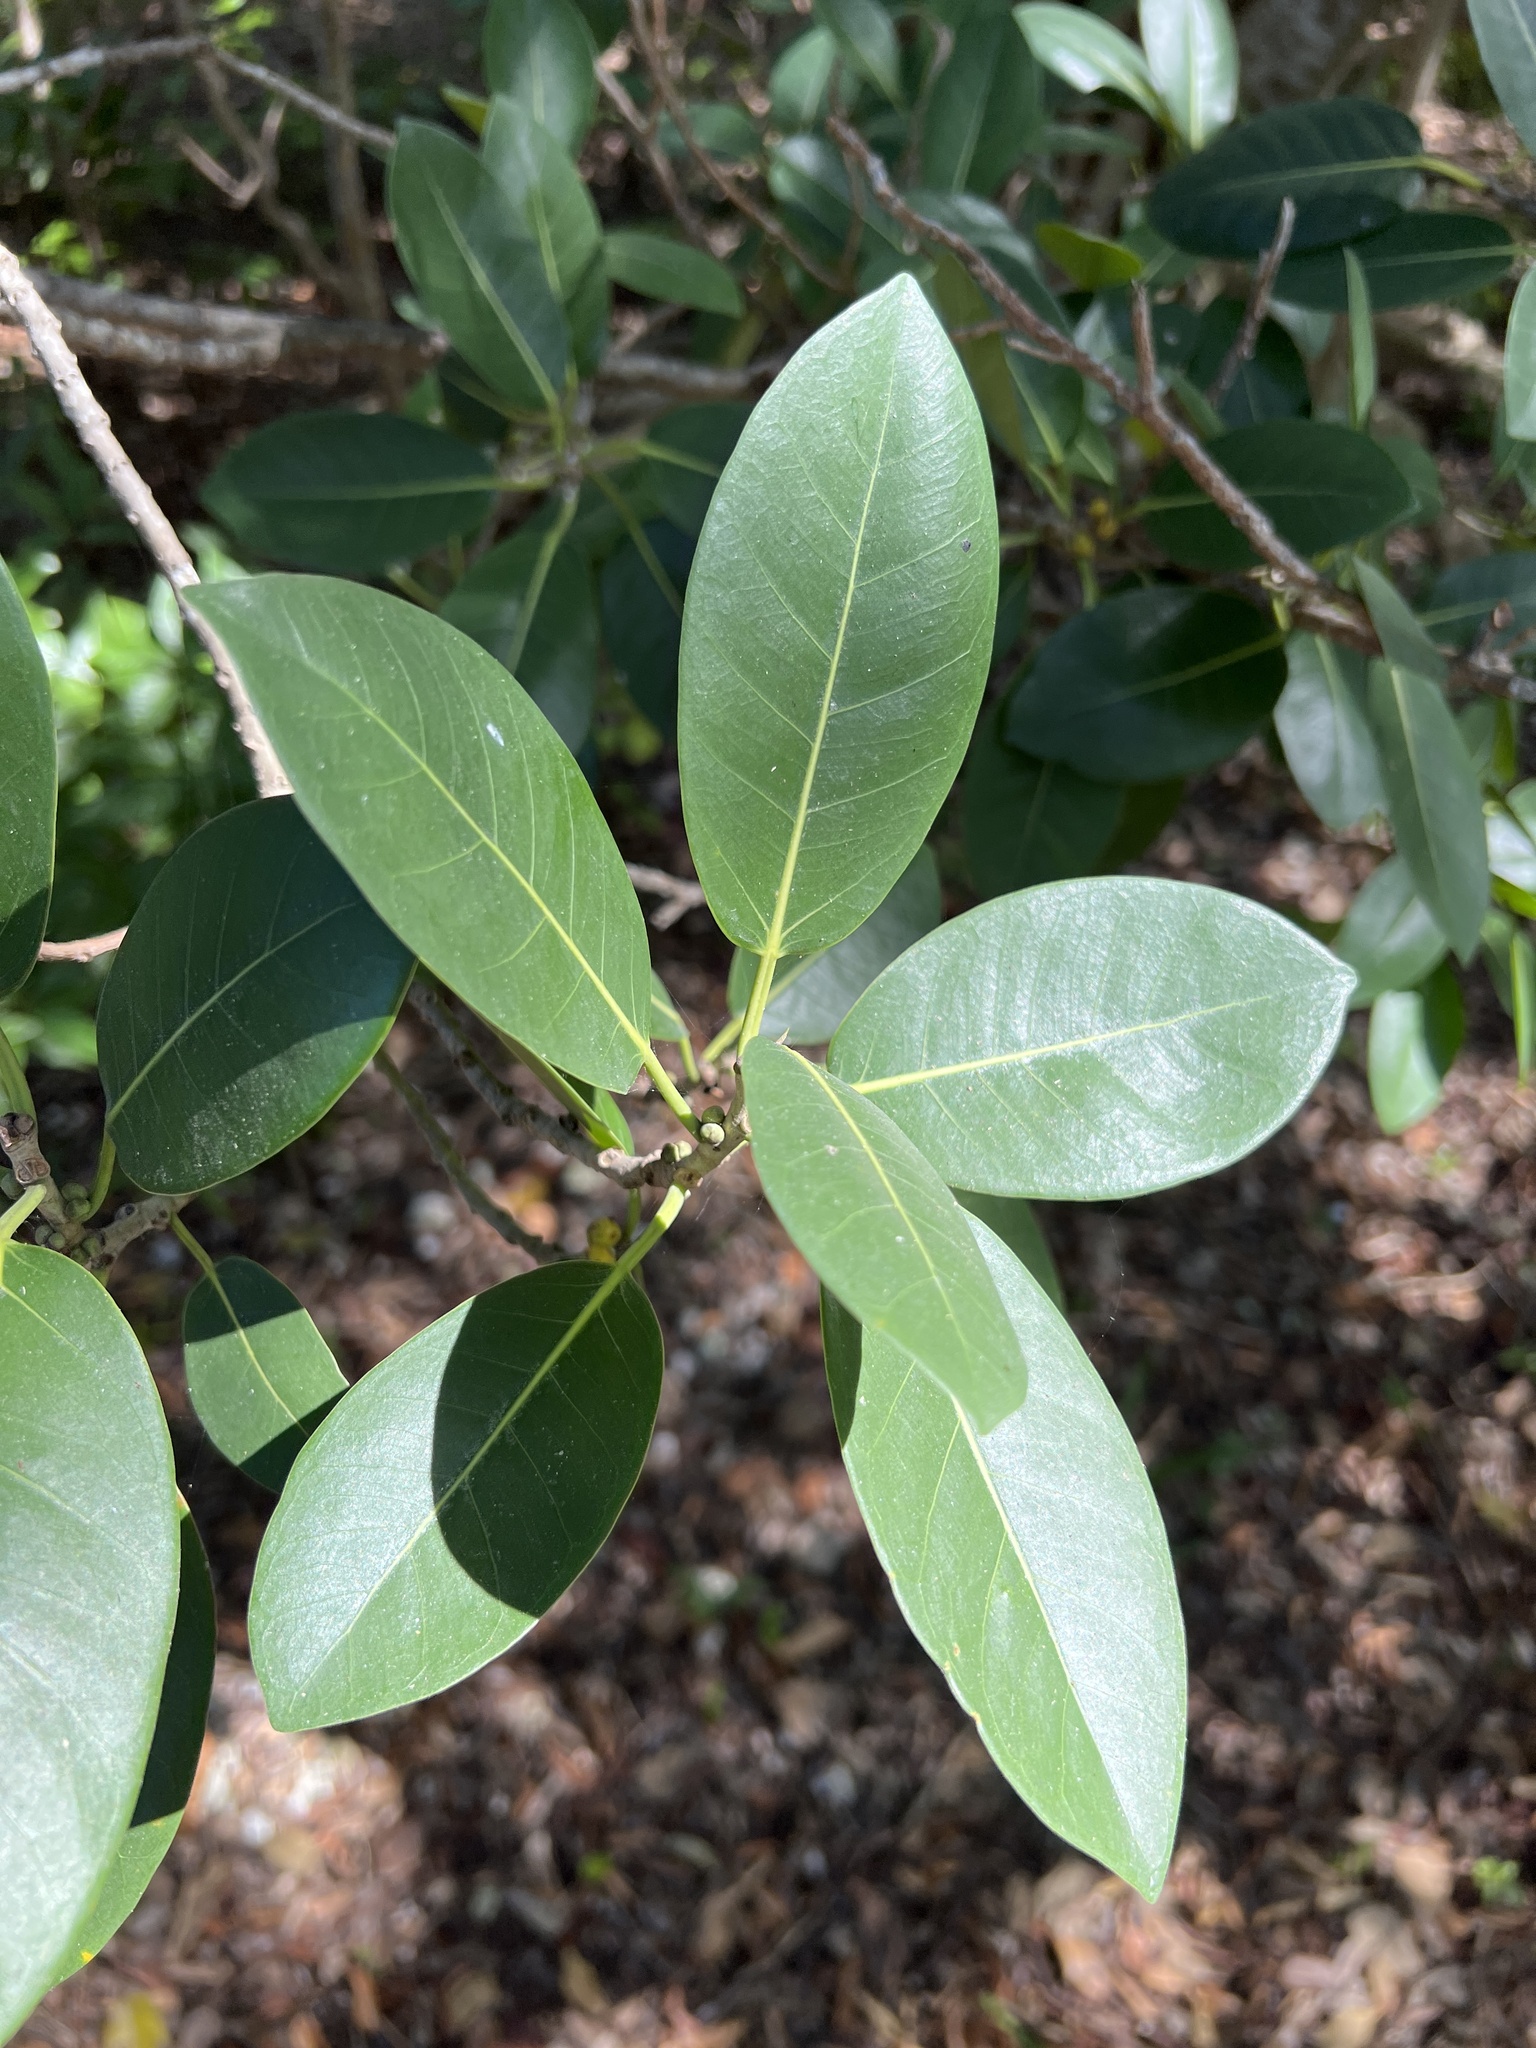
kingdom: Plantae
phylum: Tracheophyta
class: Magnoliopsida
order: Rosales
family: Moraceae
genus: Ficus
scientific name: Ficus aurea
